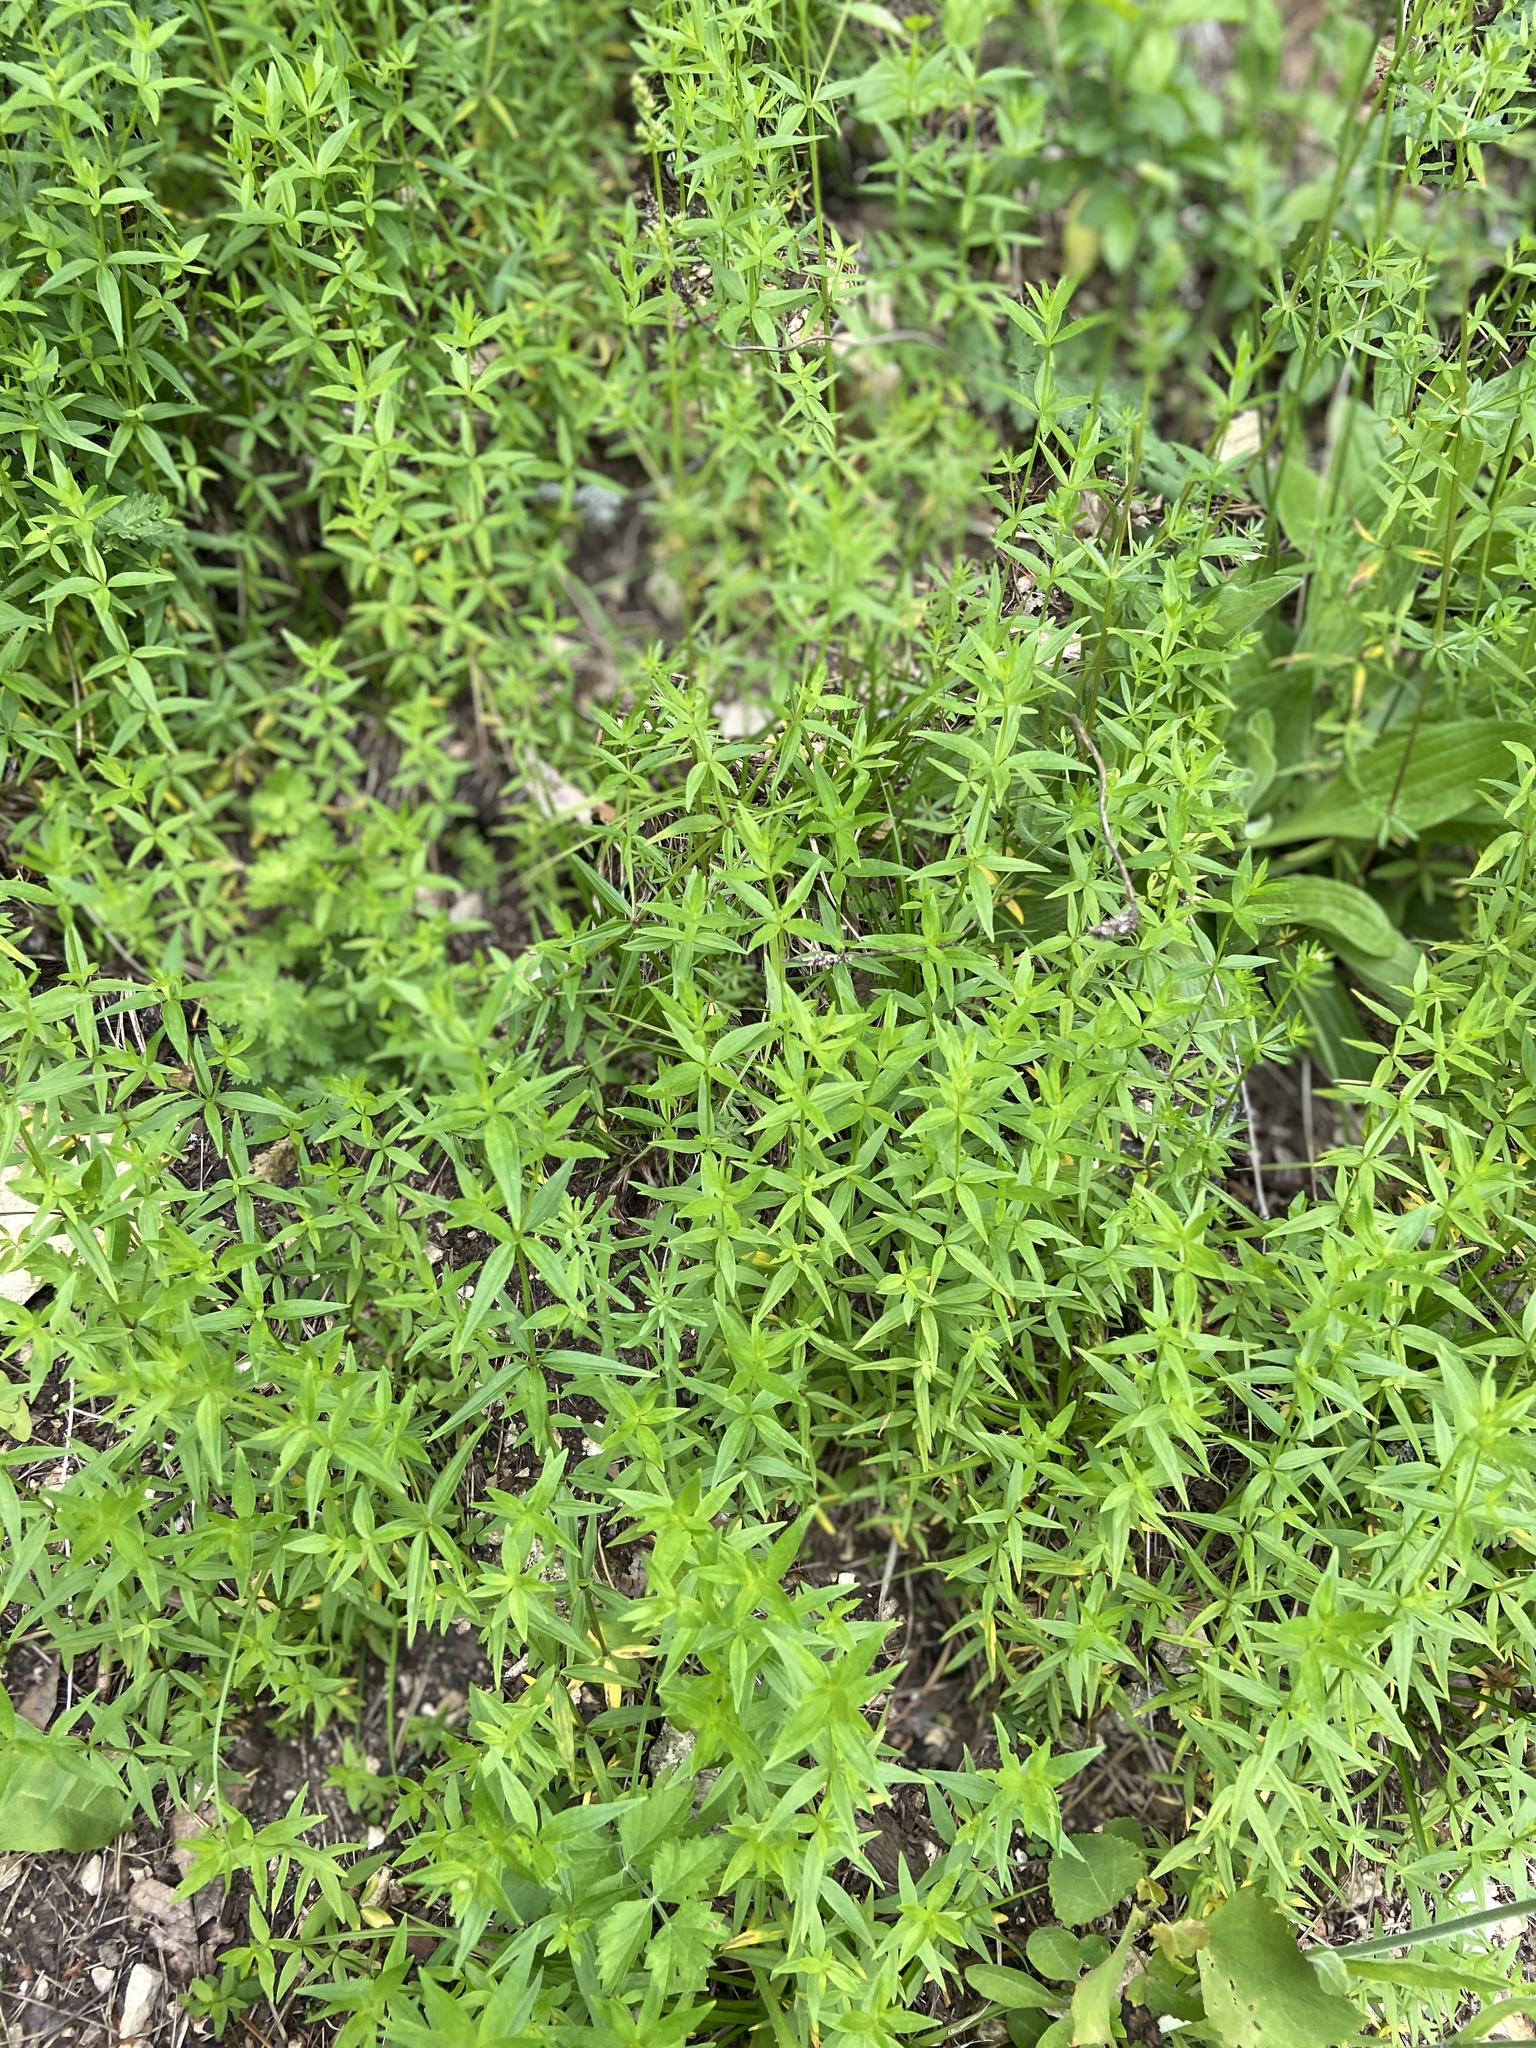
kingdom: Plantae
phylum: Tracheophyta
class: Magnoliopsida
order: Gentianales
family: Rubiaceae
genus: Galium
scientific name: Galium boreale
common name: Northern bedstraw
